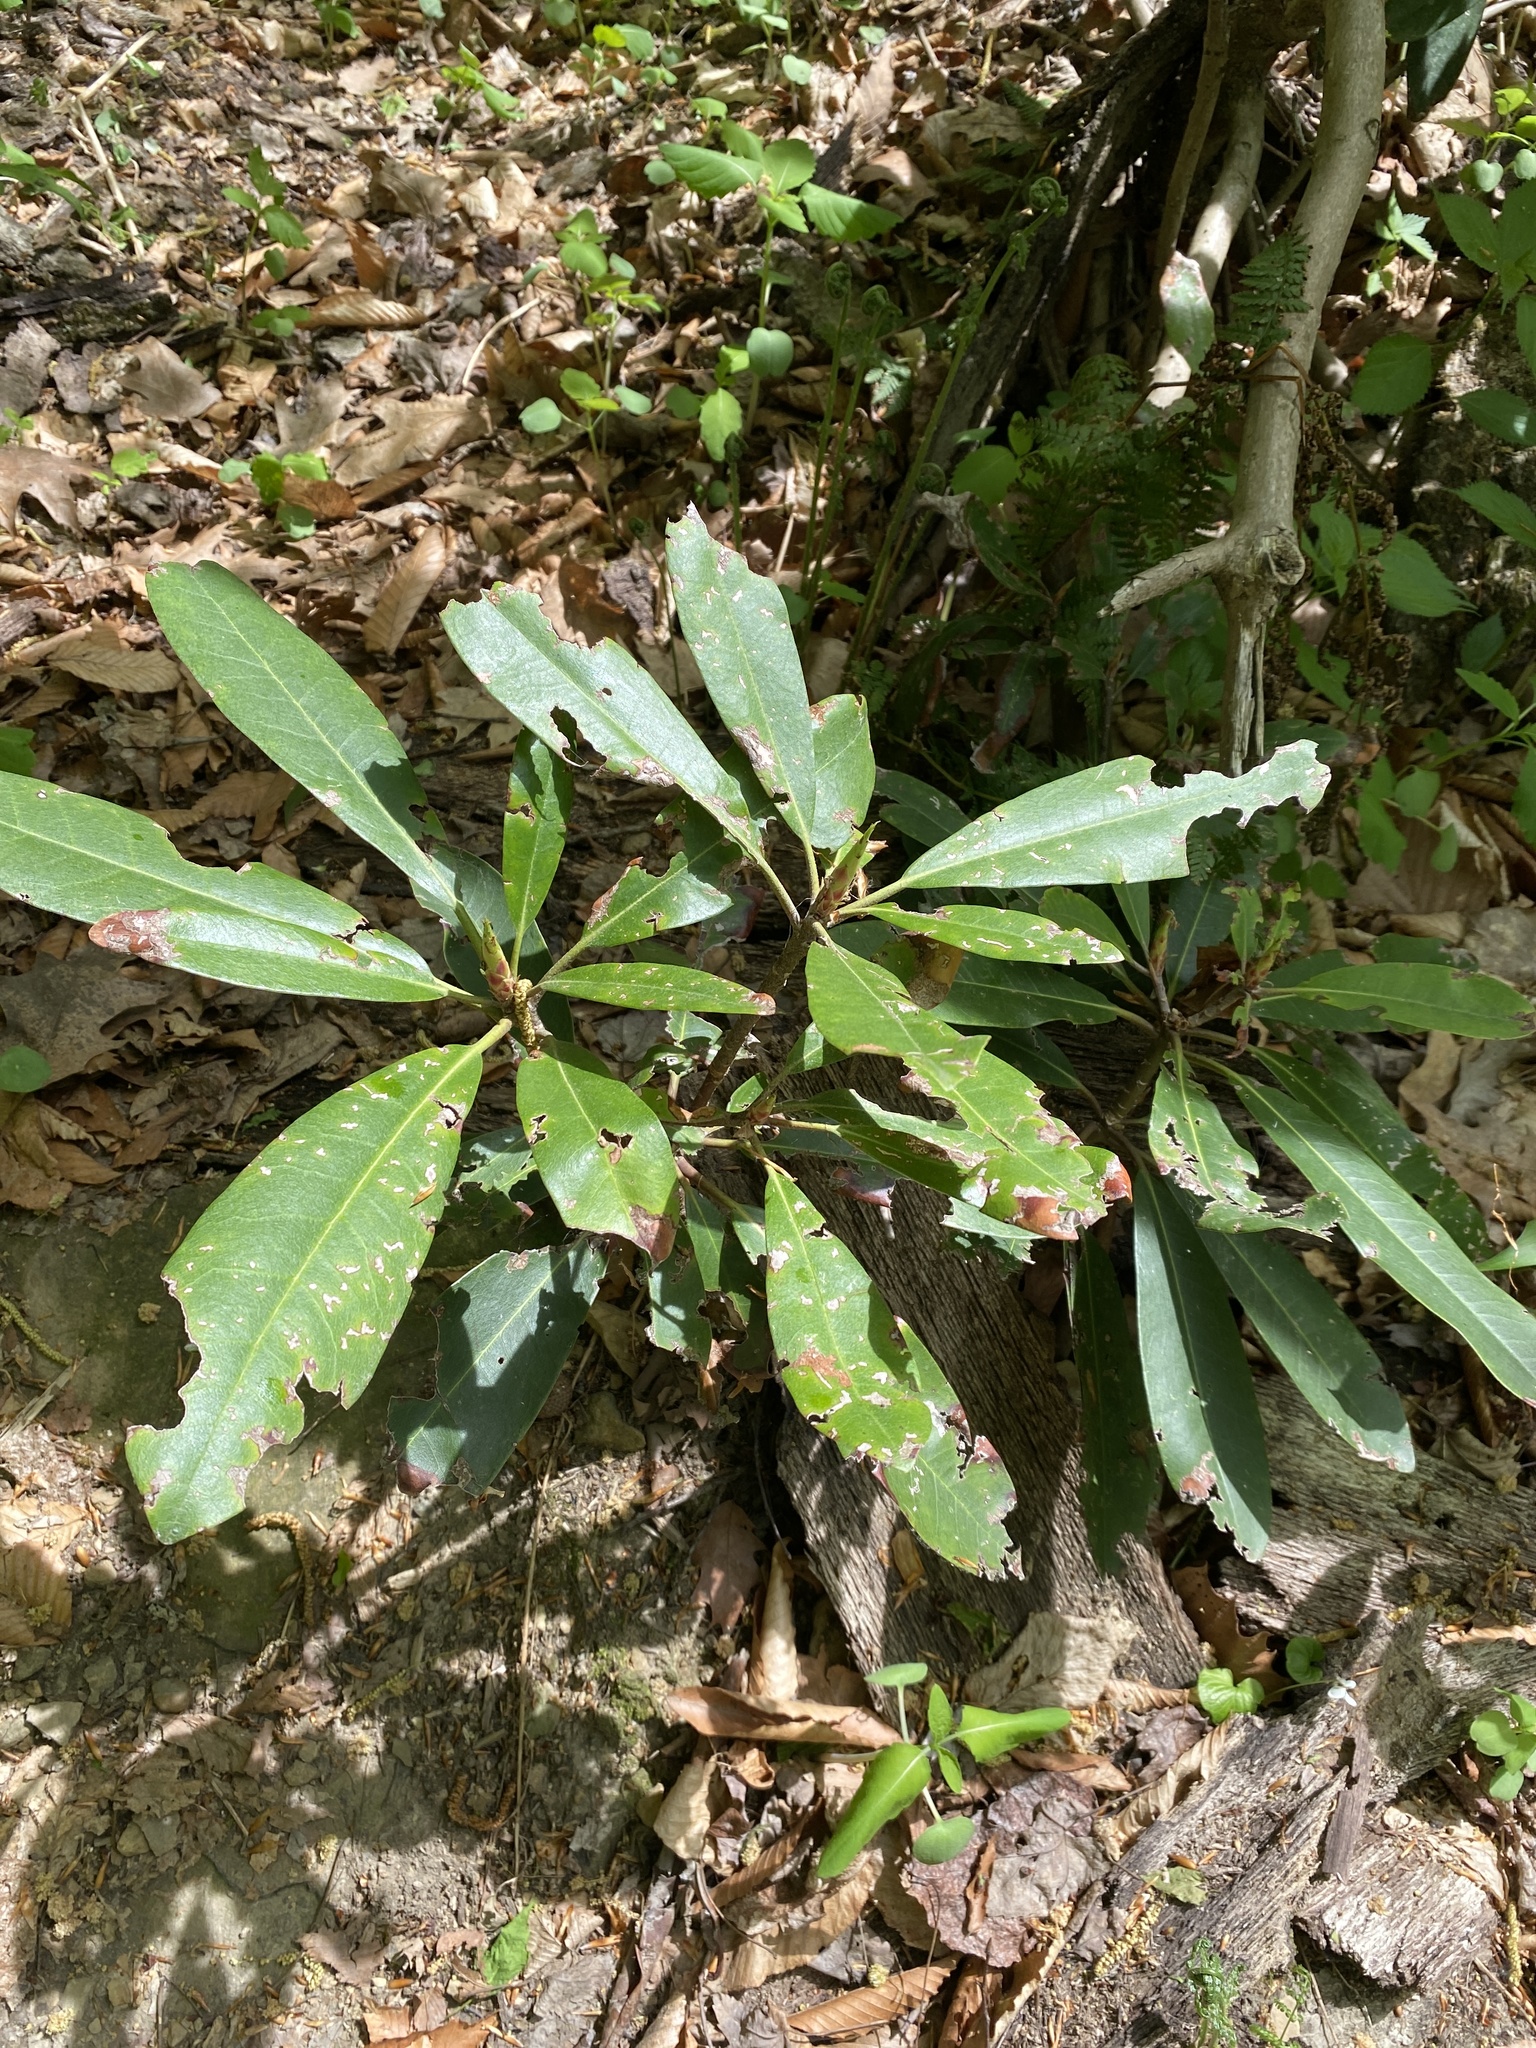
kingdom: Plantae
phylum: Tracheophyta
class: Magnoliopsida
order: Ericales
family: Ericaceae
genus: Rhododendron
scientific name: Rhododendron maximum
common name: Great rhododendron
